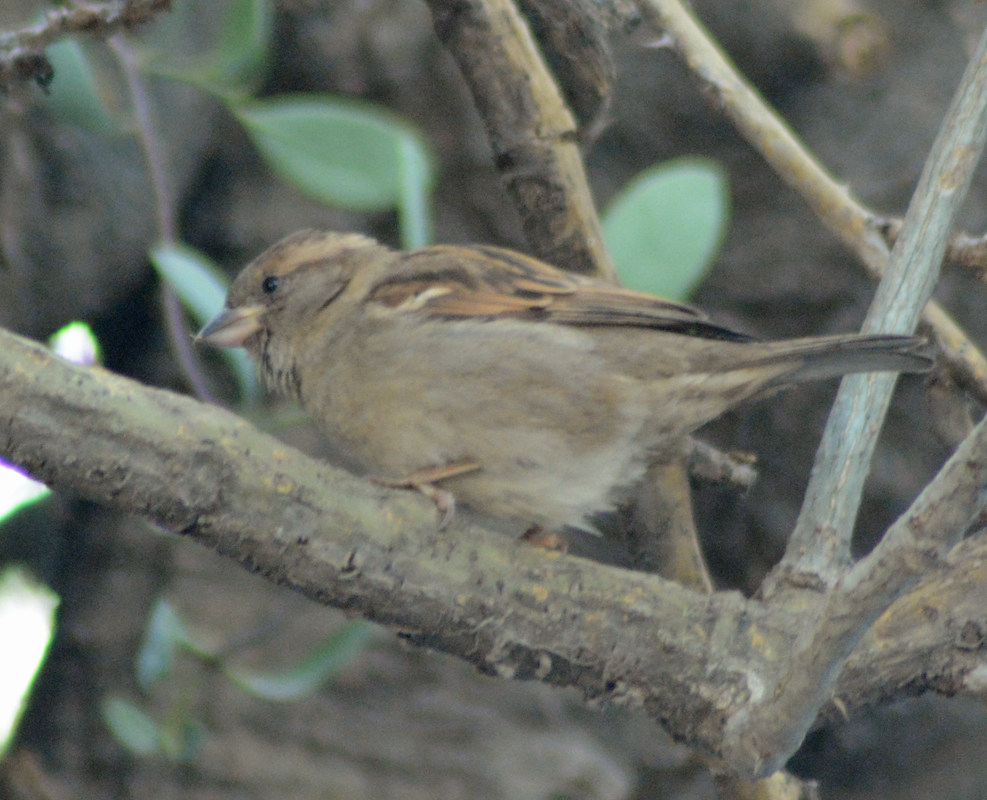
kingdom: Animalia
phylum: Chordata
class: Aves
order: Passeriformes
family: Passeridae
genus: Passer
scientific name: Passer domesticus
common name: House sparrow
